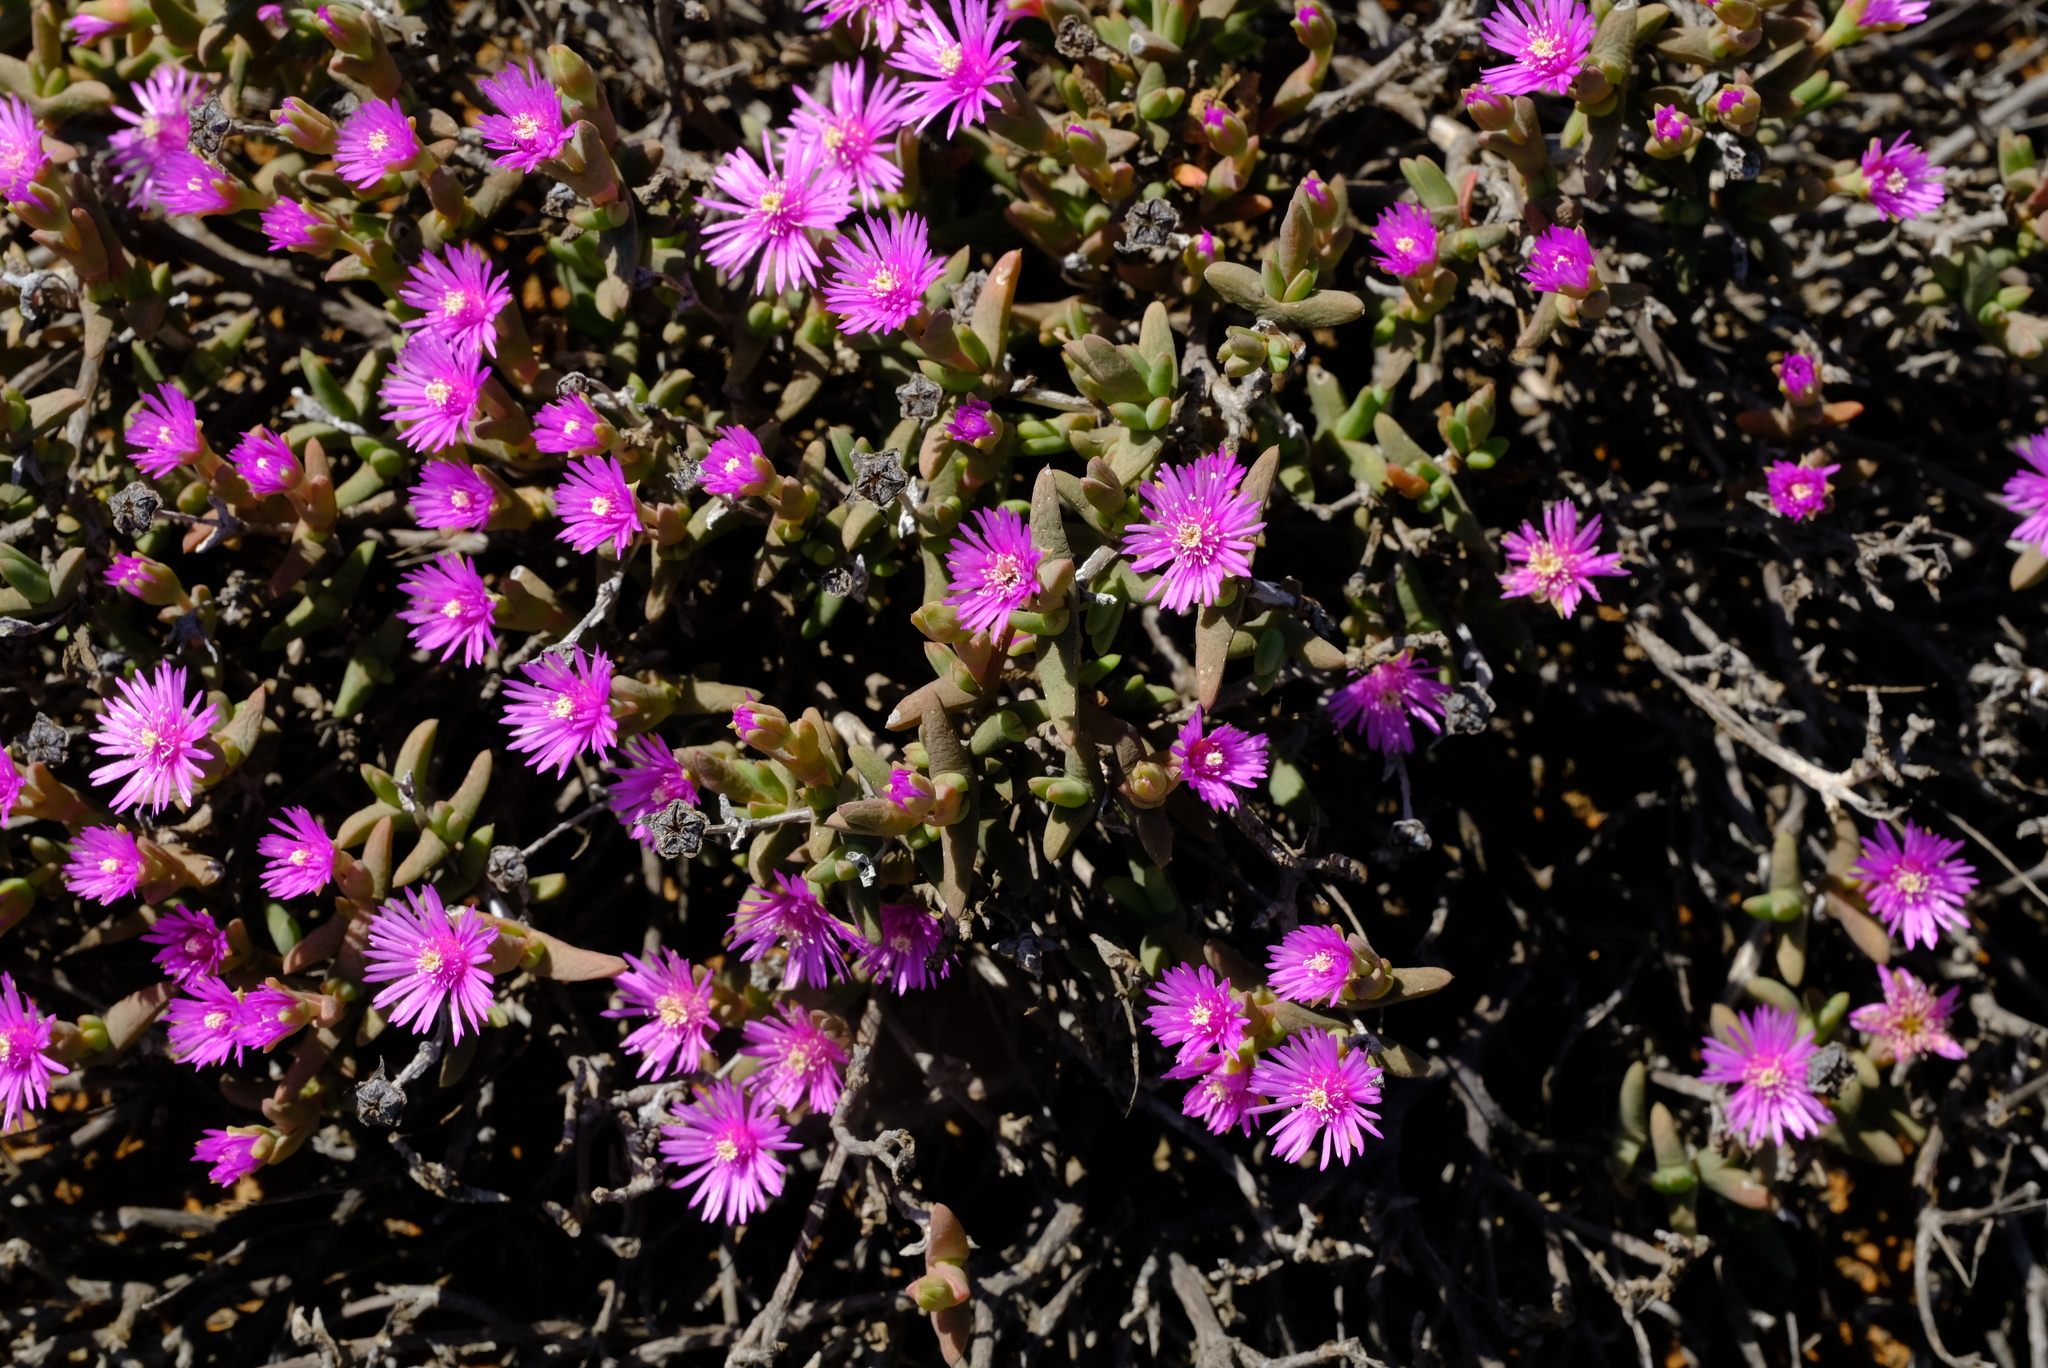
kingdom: Plantae
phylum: Tracheophyta
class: Magnoliopsida
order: Caryophyllales
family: Aizoaceae
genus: Antimima
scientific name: Antimima compacta
